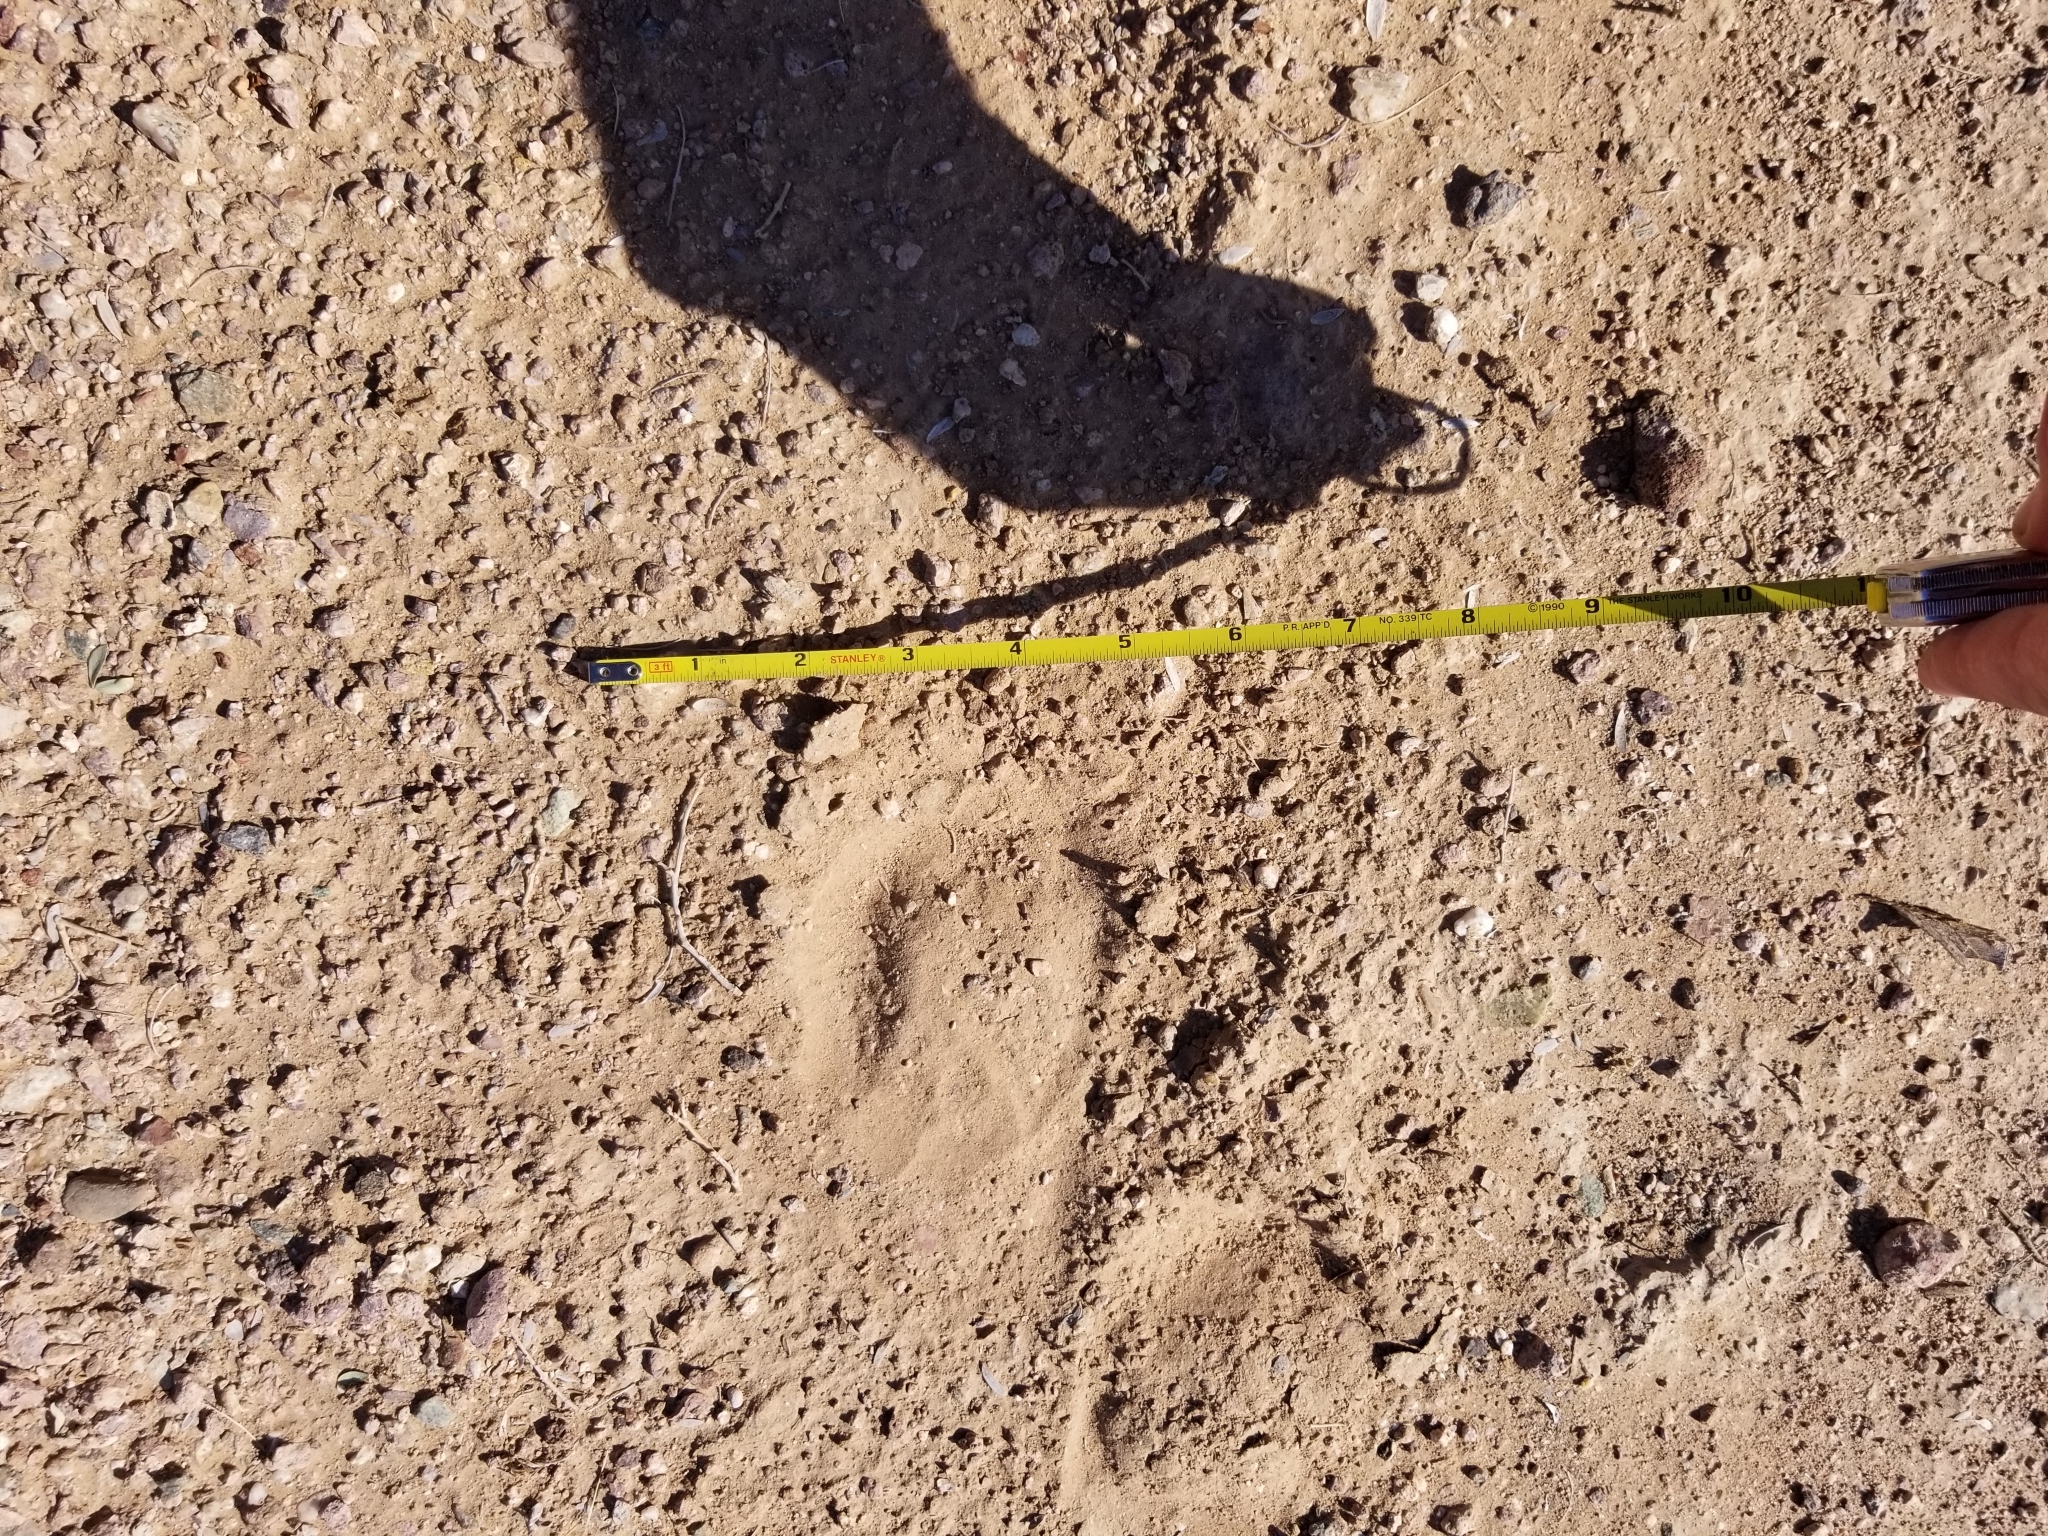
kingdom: Animalia
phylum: Chordata
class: Mammalia
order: Perissodactyla
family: Equidae
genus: Equus
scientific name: Equus asinus
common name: Ass
